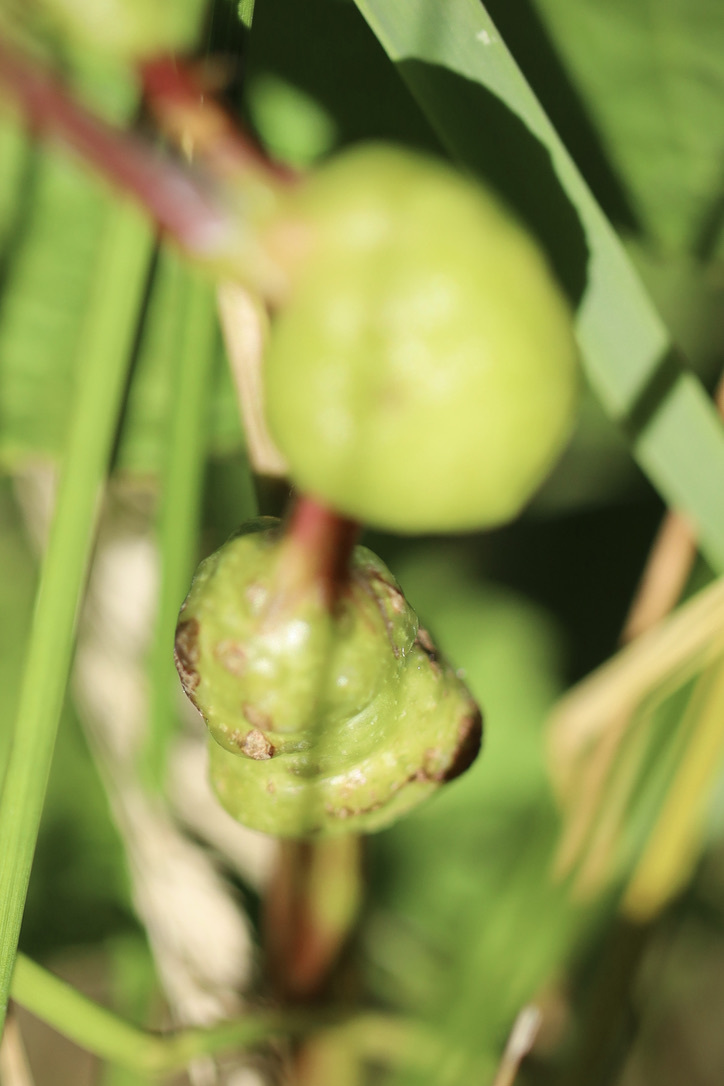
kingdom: Animalia
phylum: Arthropoda
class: Insecta
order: Hymenoptera
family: Cynipidae
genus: Diastrophus
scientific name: Diastrophus
